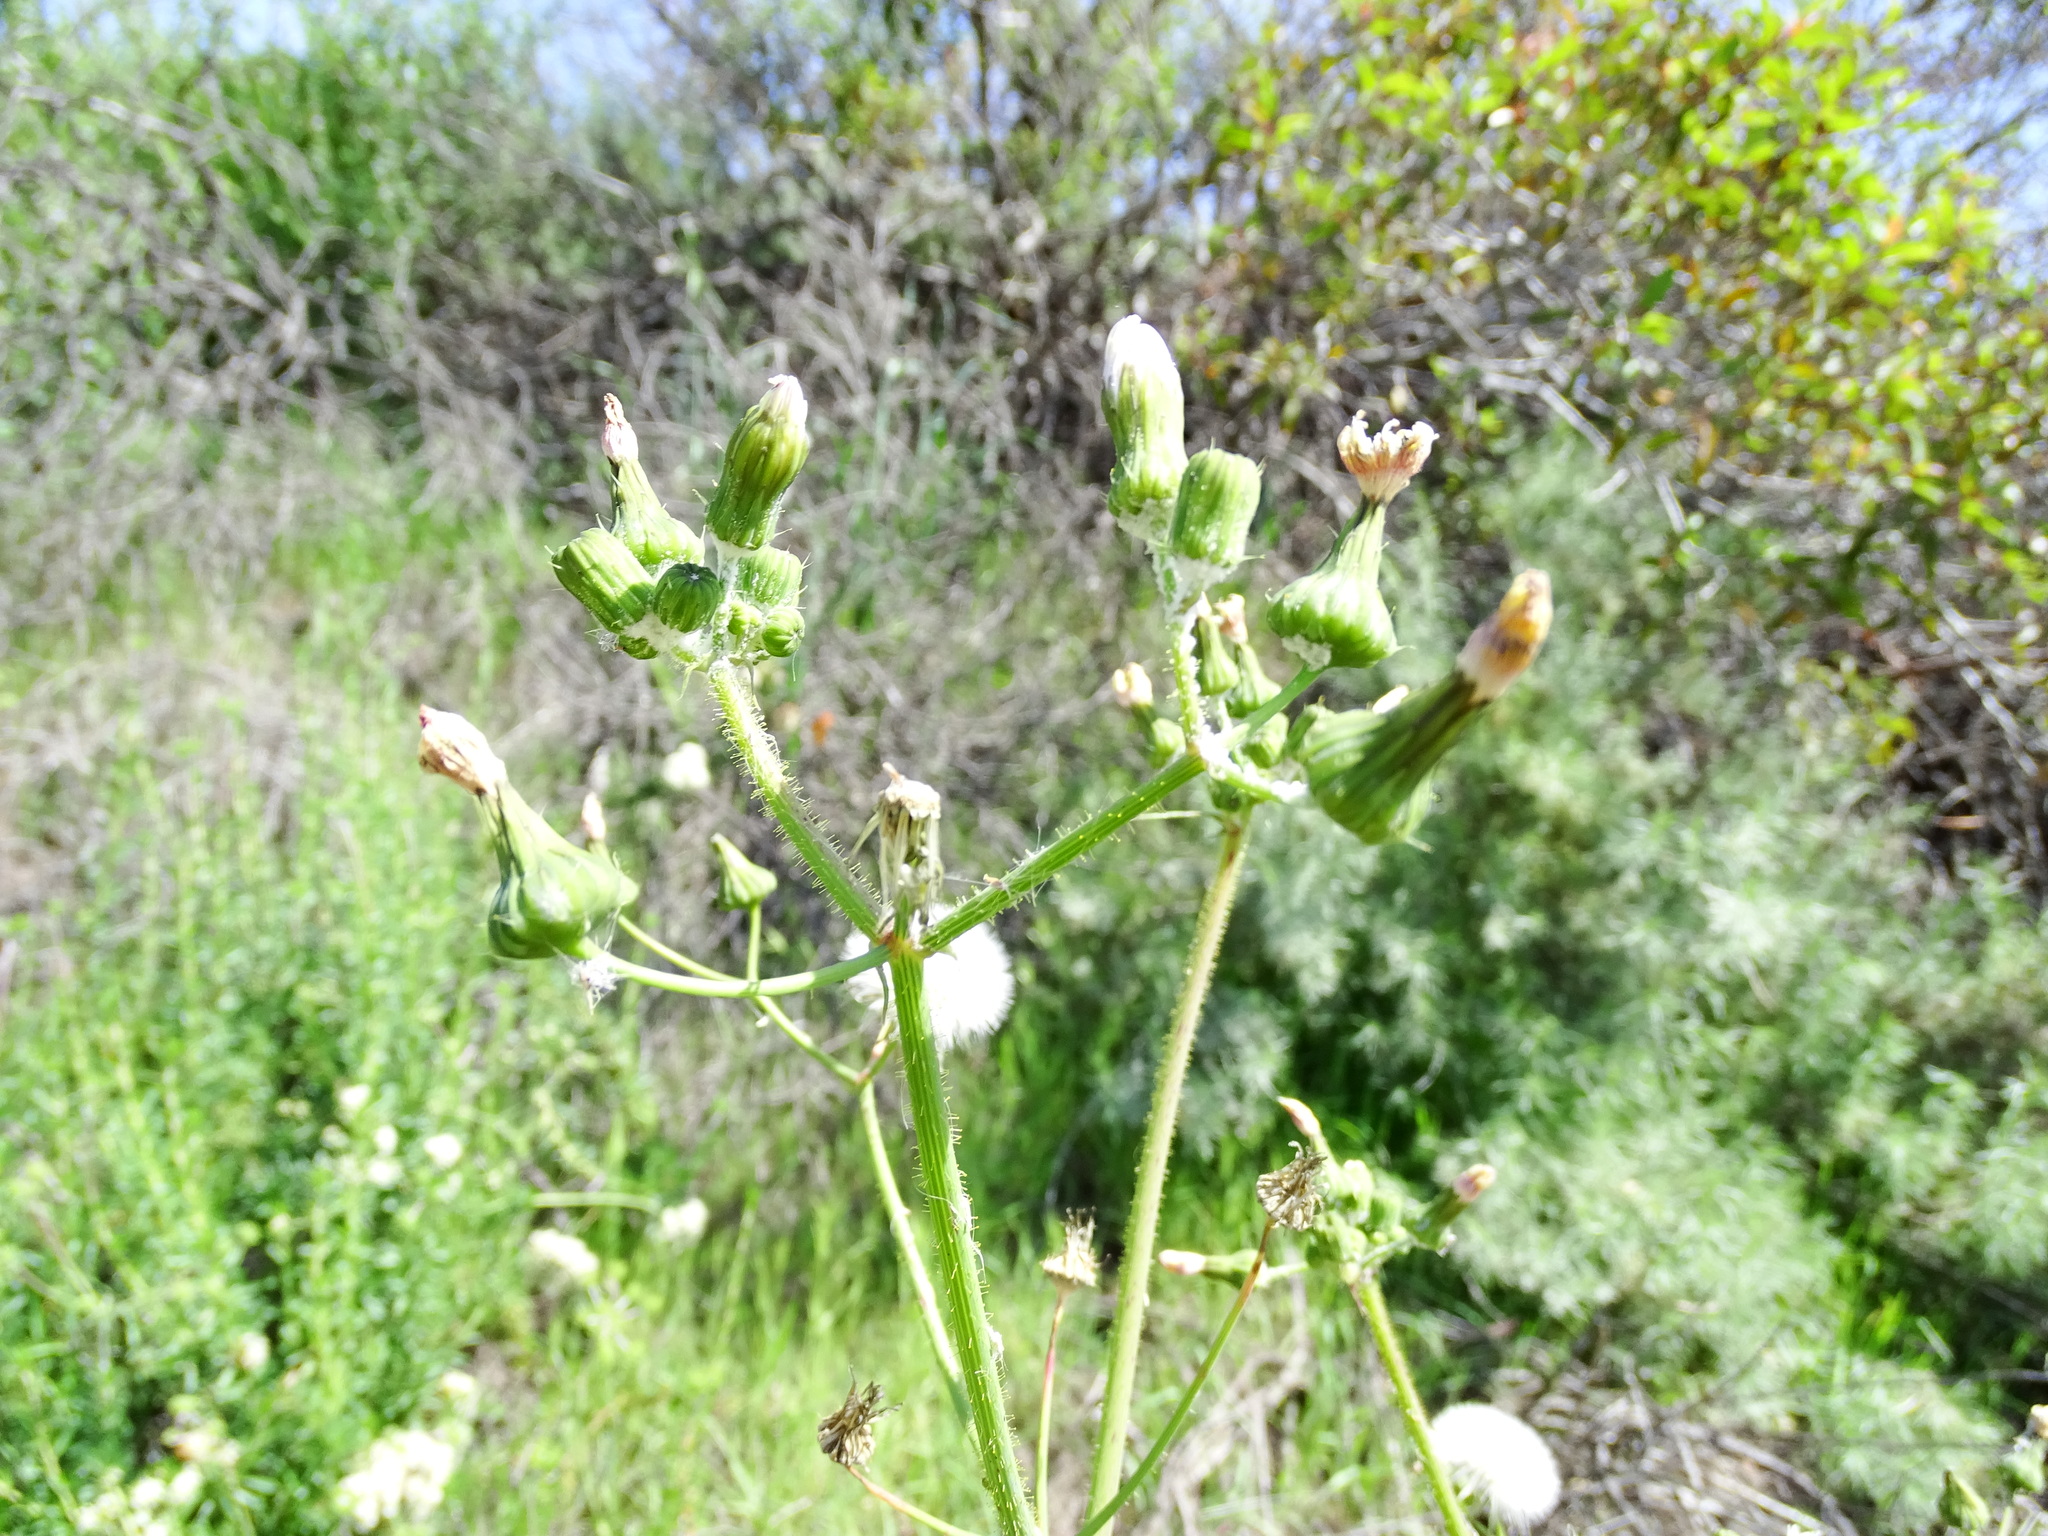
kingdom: Plantae
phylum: Tracheophyta
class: Magnoliopsida
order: Asterales
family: Asteraceae
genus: Sonchus
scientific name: Sonchus asper
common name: Prickly sow-thistle
